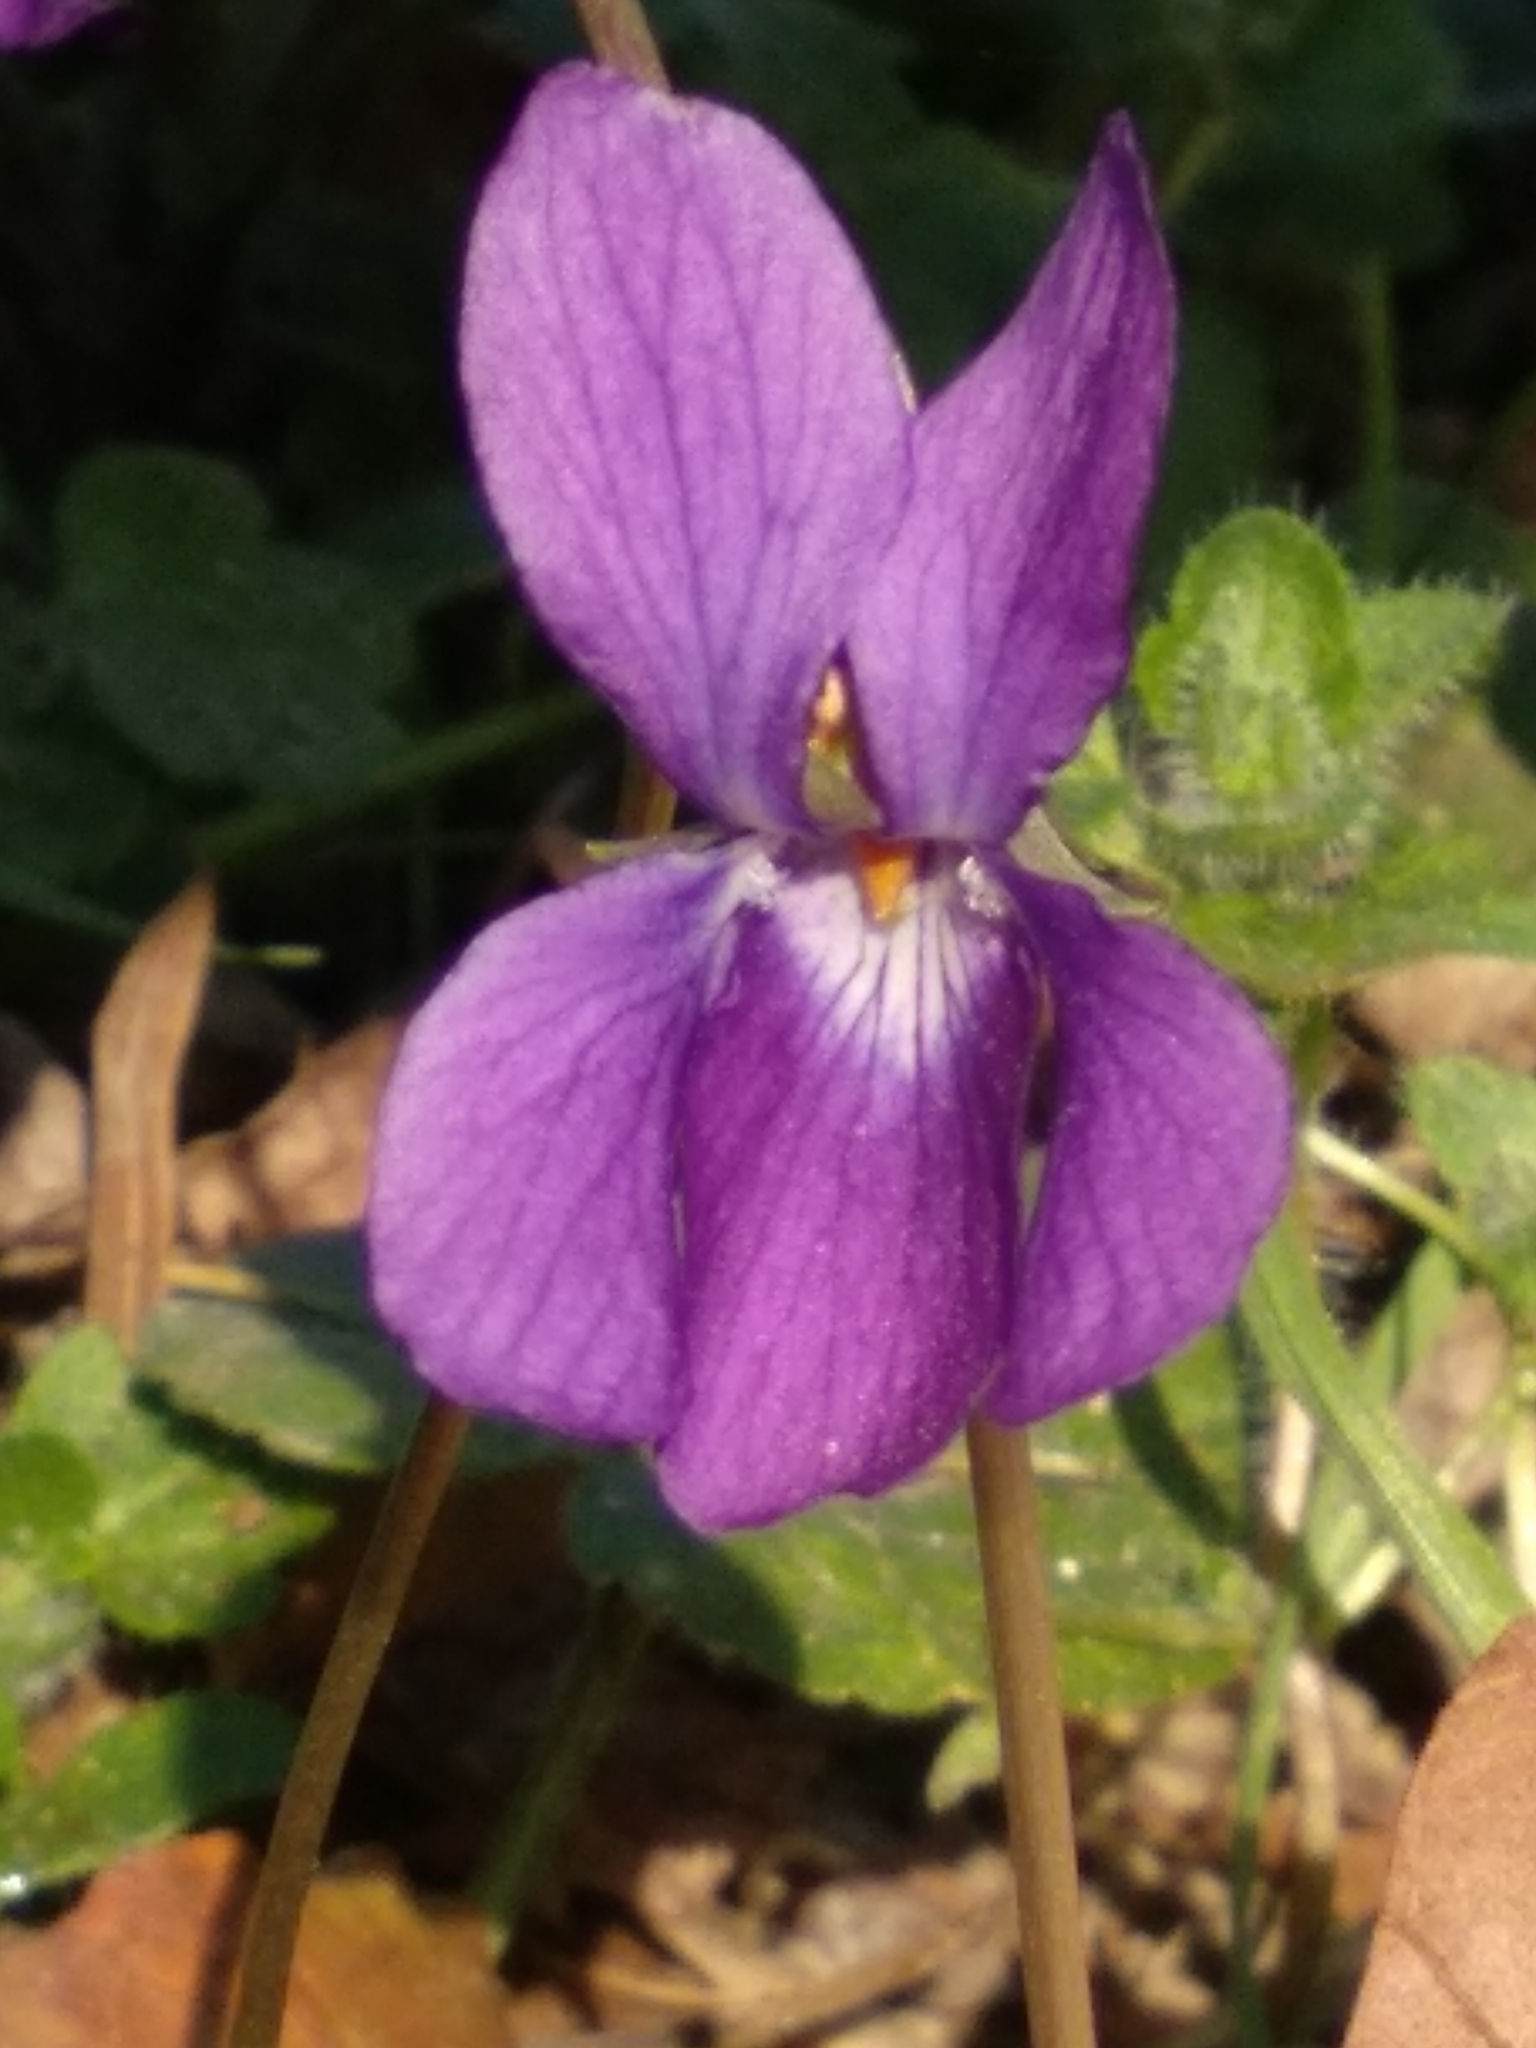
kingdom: Plantae
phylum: Tracheophyta
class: Magnoliopsida
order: Malpighiales
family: Violaceae
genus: Viola
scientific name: Viola odorata
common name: Sweet violet
